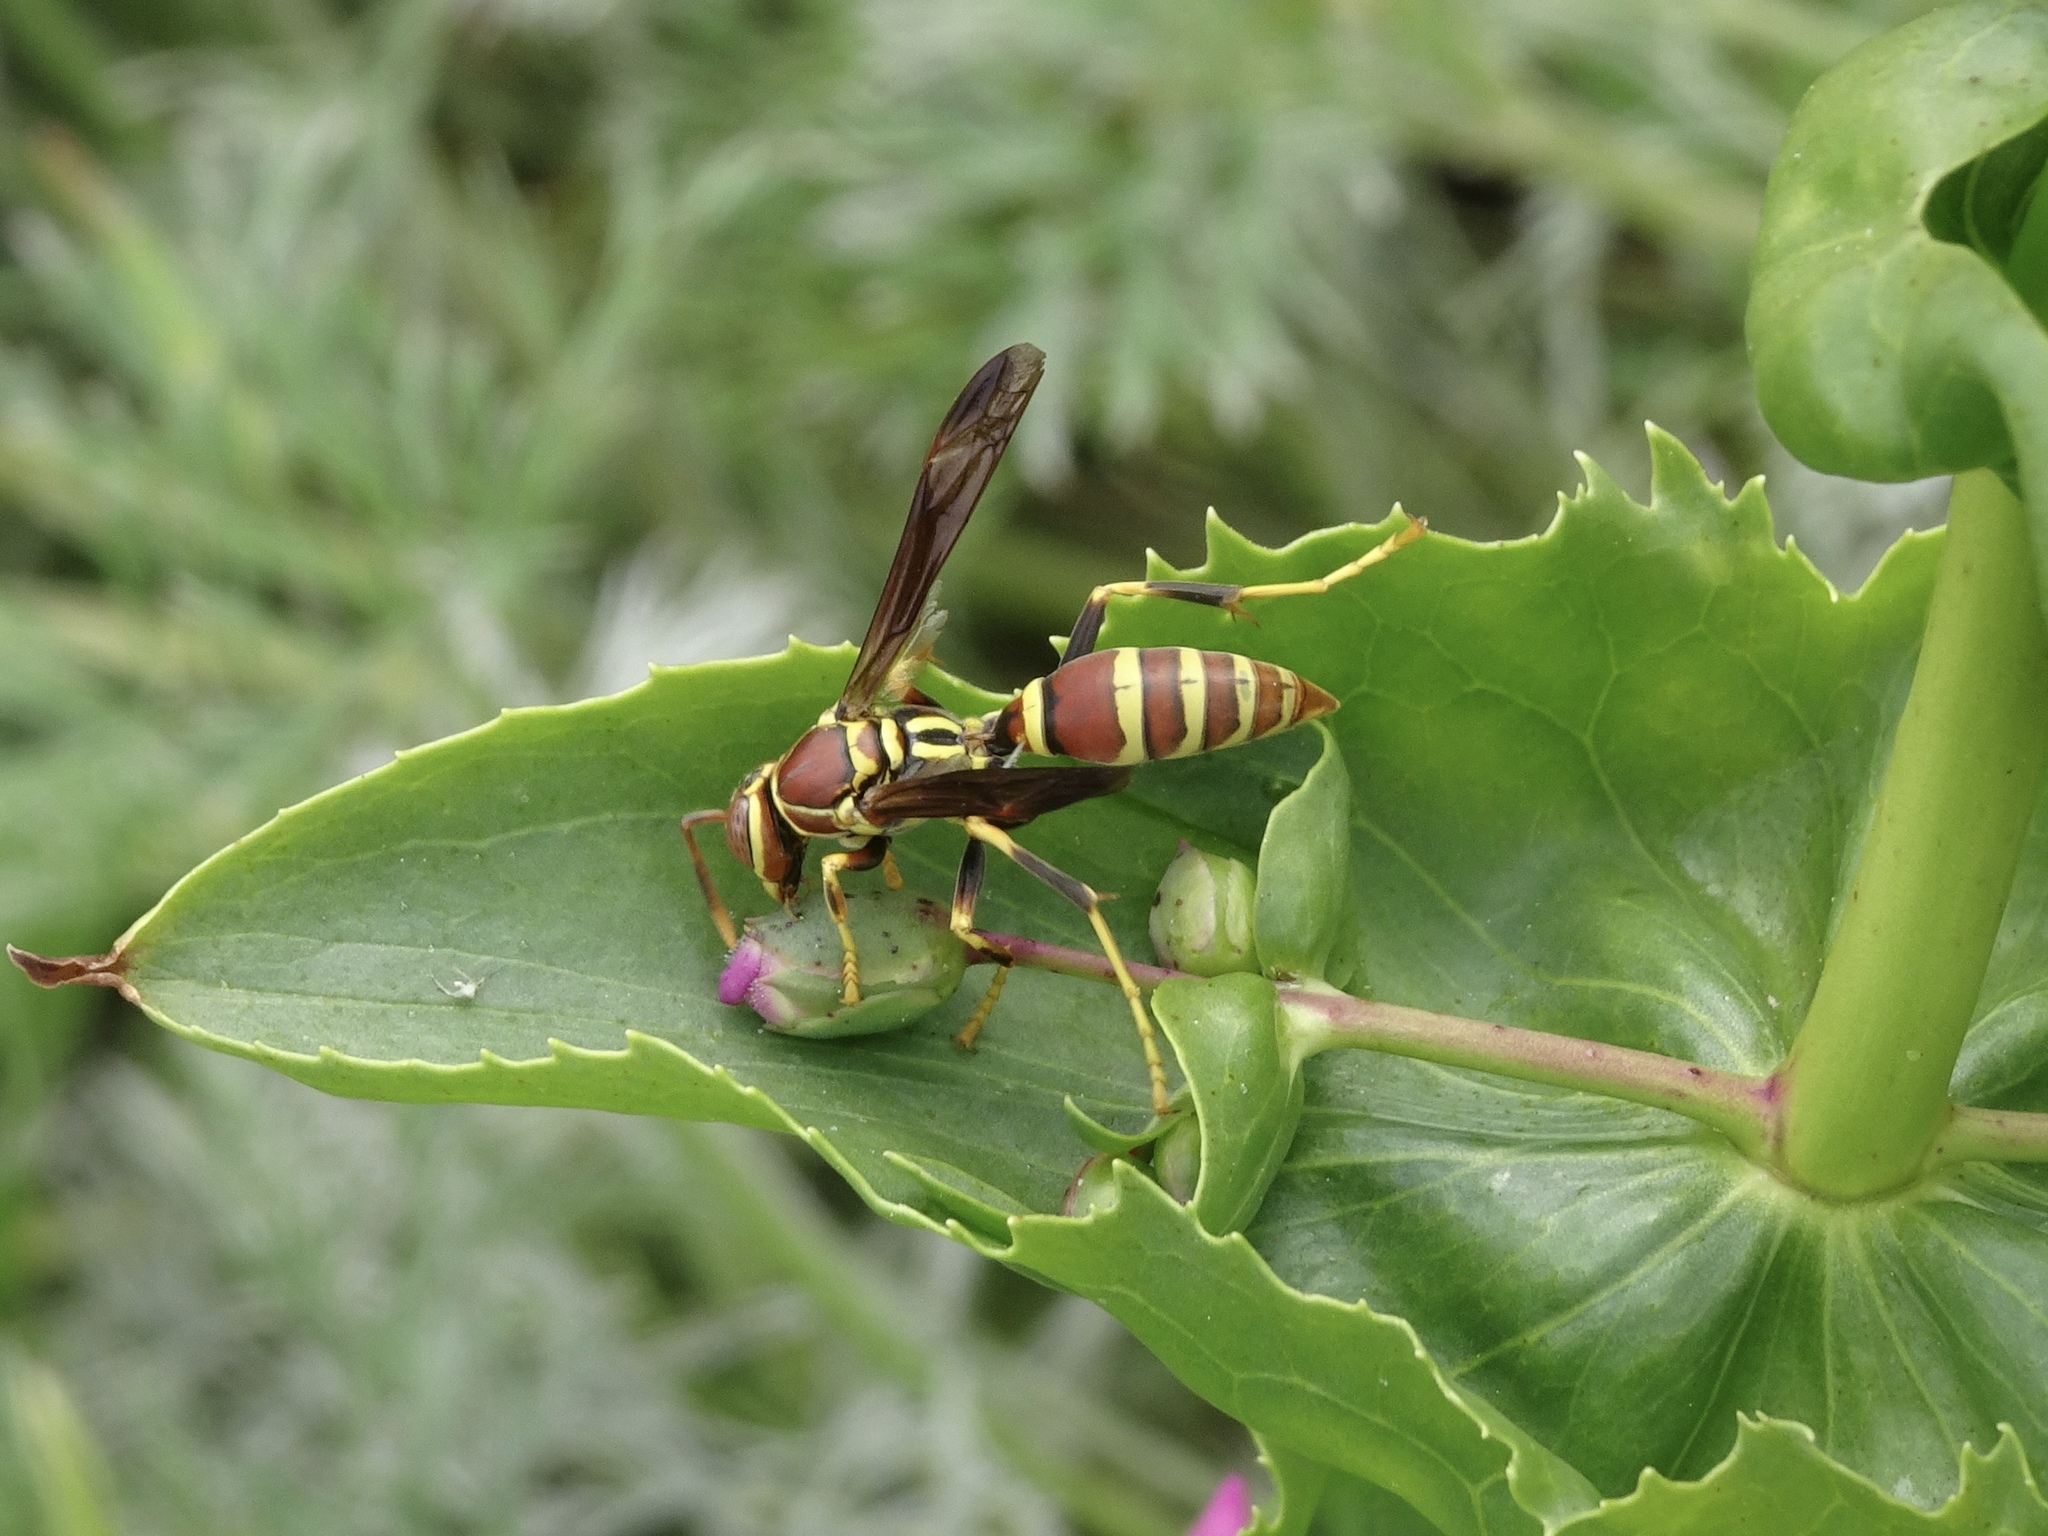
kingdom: Animalia
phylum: Arthropoda
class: Insecta
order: Hymenoptera
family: Eumenidae
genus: Polistes
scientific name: Polistes exclamans
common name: Paper wasp
